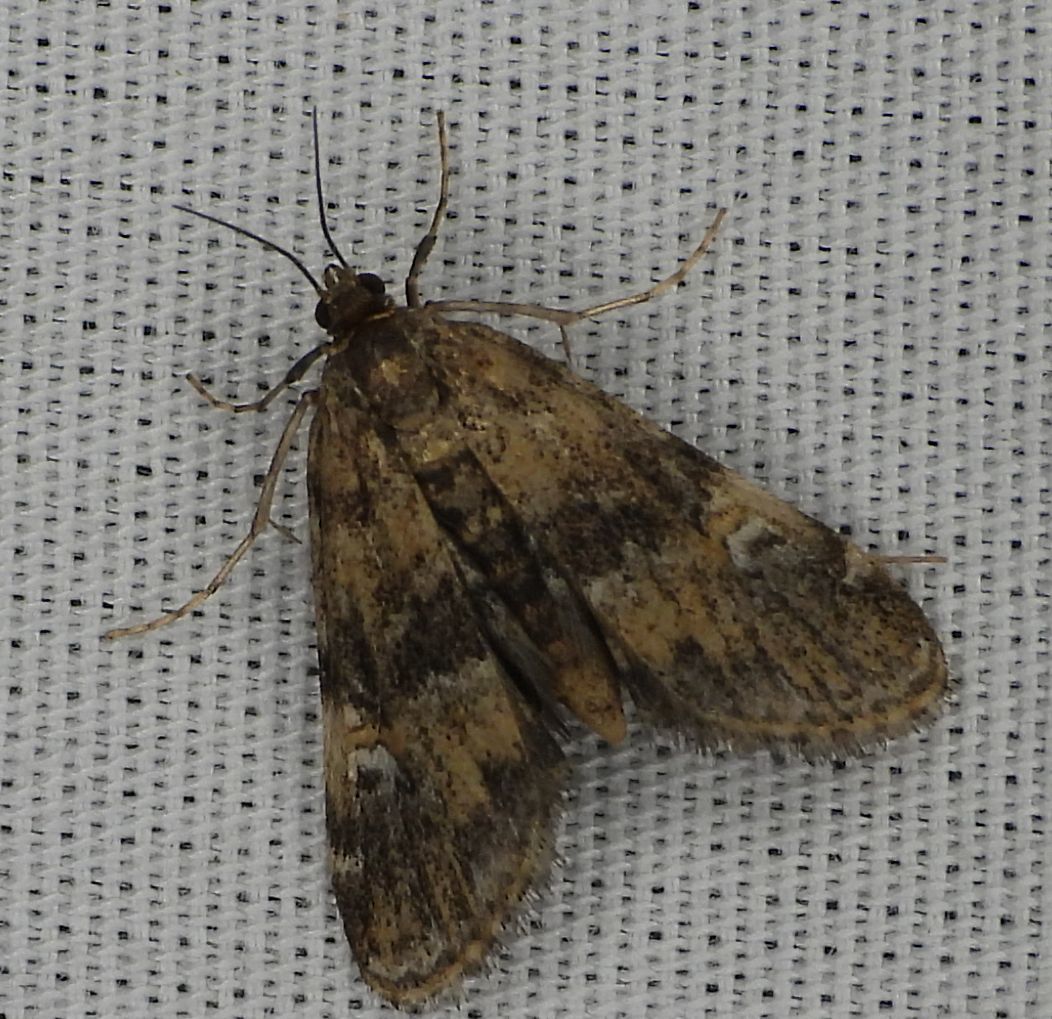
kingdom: Animalia
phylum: Arthropoda
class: Insecta
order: Lepidoptera
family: Crambidae
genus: Elophila
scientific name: Elophila obliteralis
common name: Waterlily leafcutter moth
